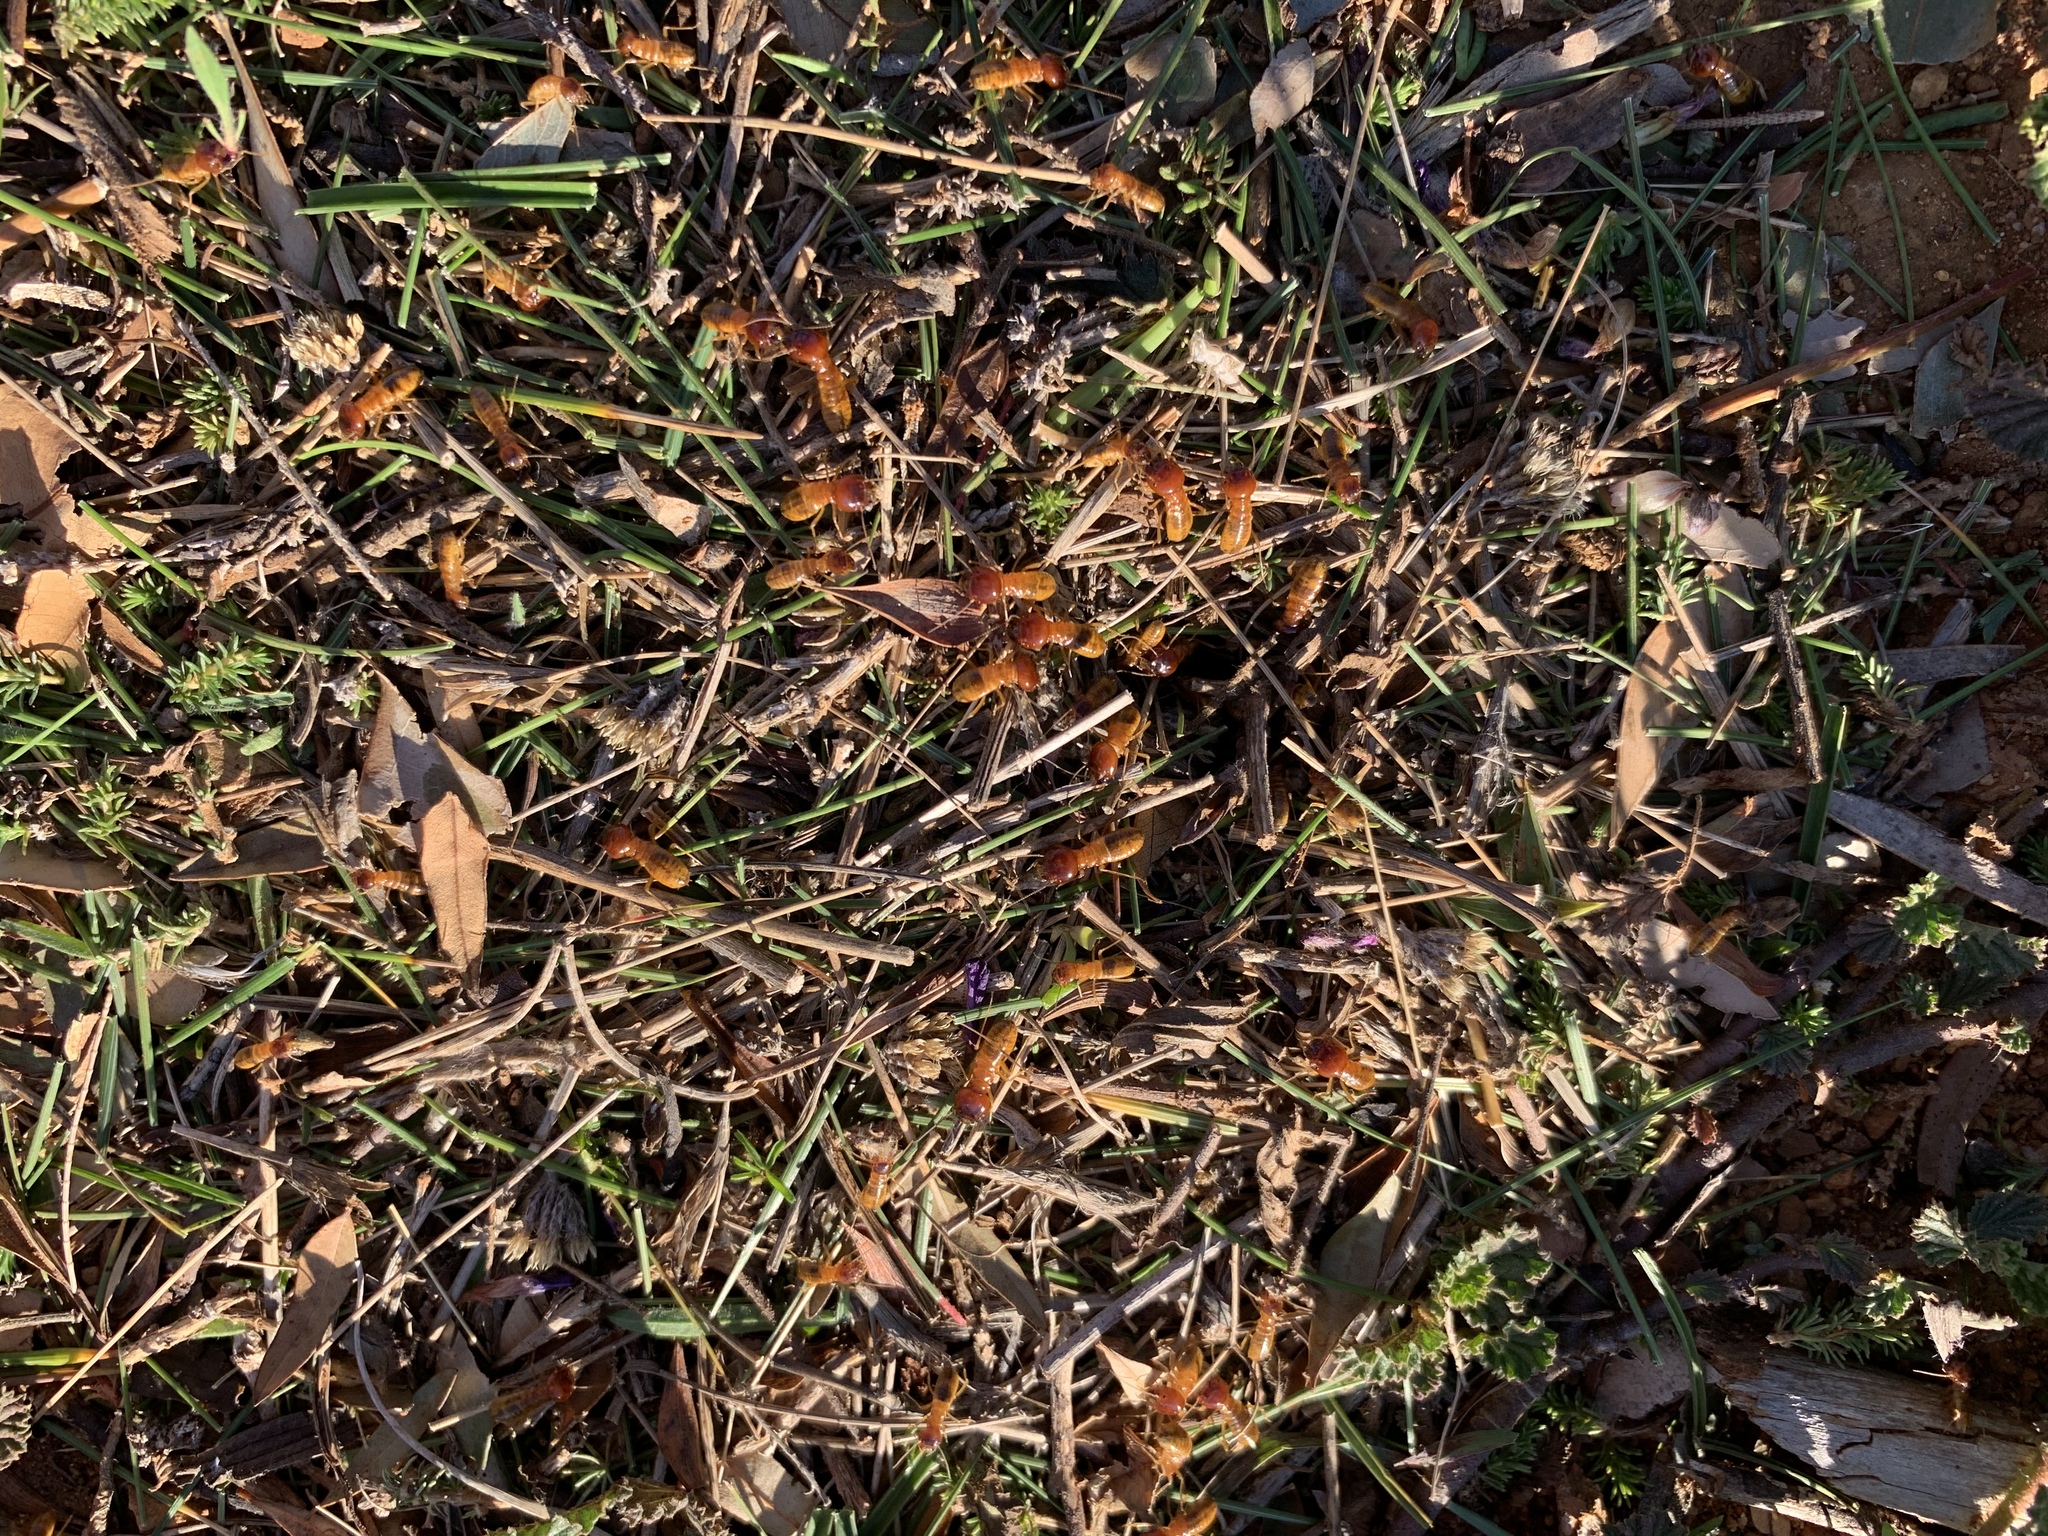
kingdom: Animalia
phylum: Arthropoda
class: Insecta
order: Blattodea
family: Hodotermitidae
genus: Microhodotermes
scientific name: Microhodotermes viator
